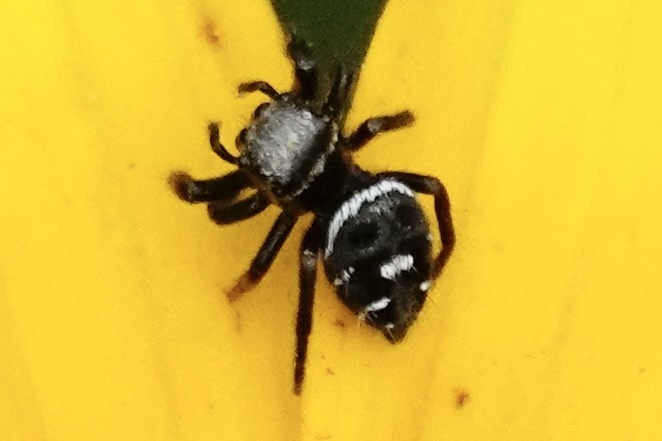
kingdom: Animalia
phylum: Arthropoda
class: Arachnida
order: Araneae
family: Salticidae
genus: Phidippus
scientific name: Phidippus audax
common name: Bold jumper
